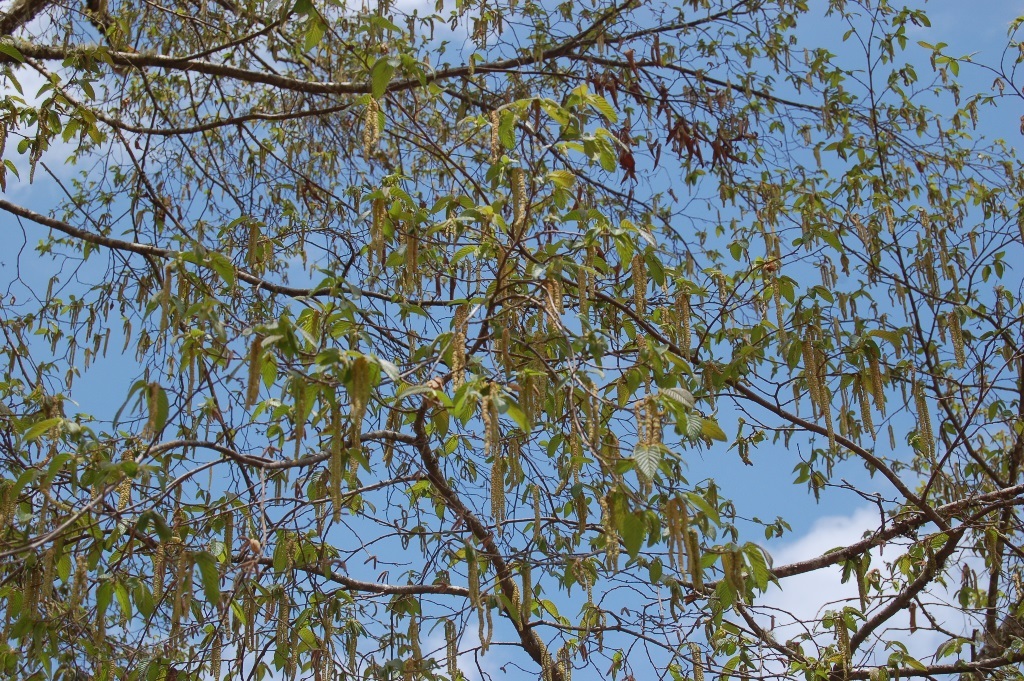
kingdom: Plantae
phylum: Tracheophyta
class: Magnoliopsida
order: Fagales
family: Betulaceae
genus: Ostrya
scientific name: Ostrya virginiana
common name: Ironwood
